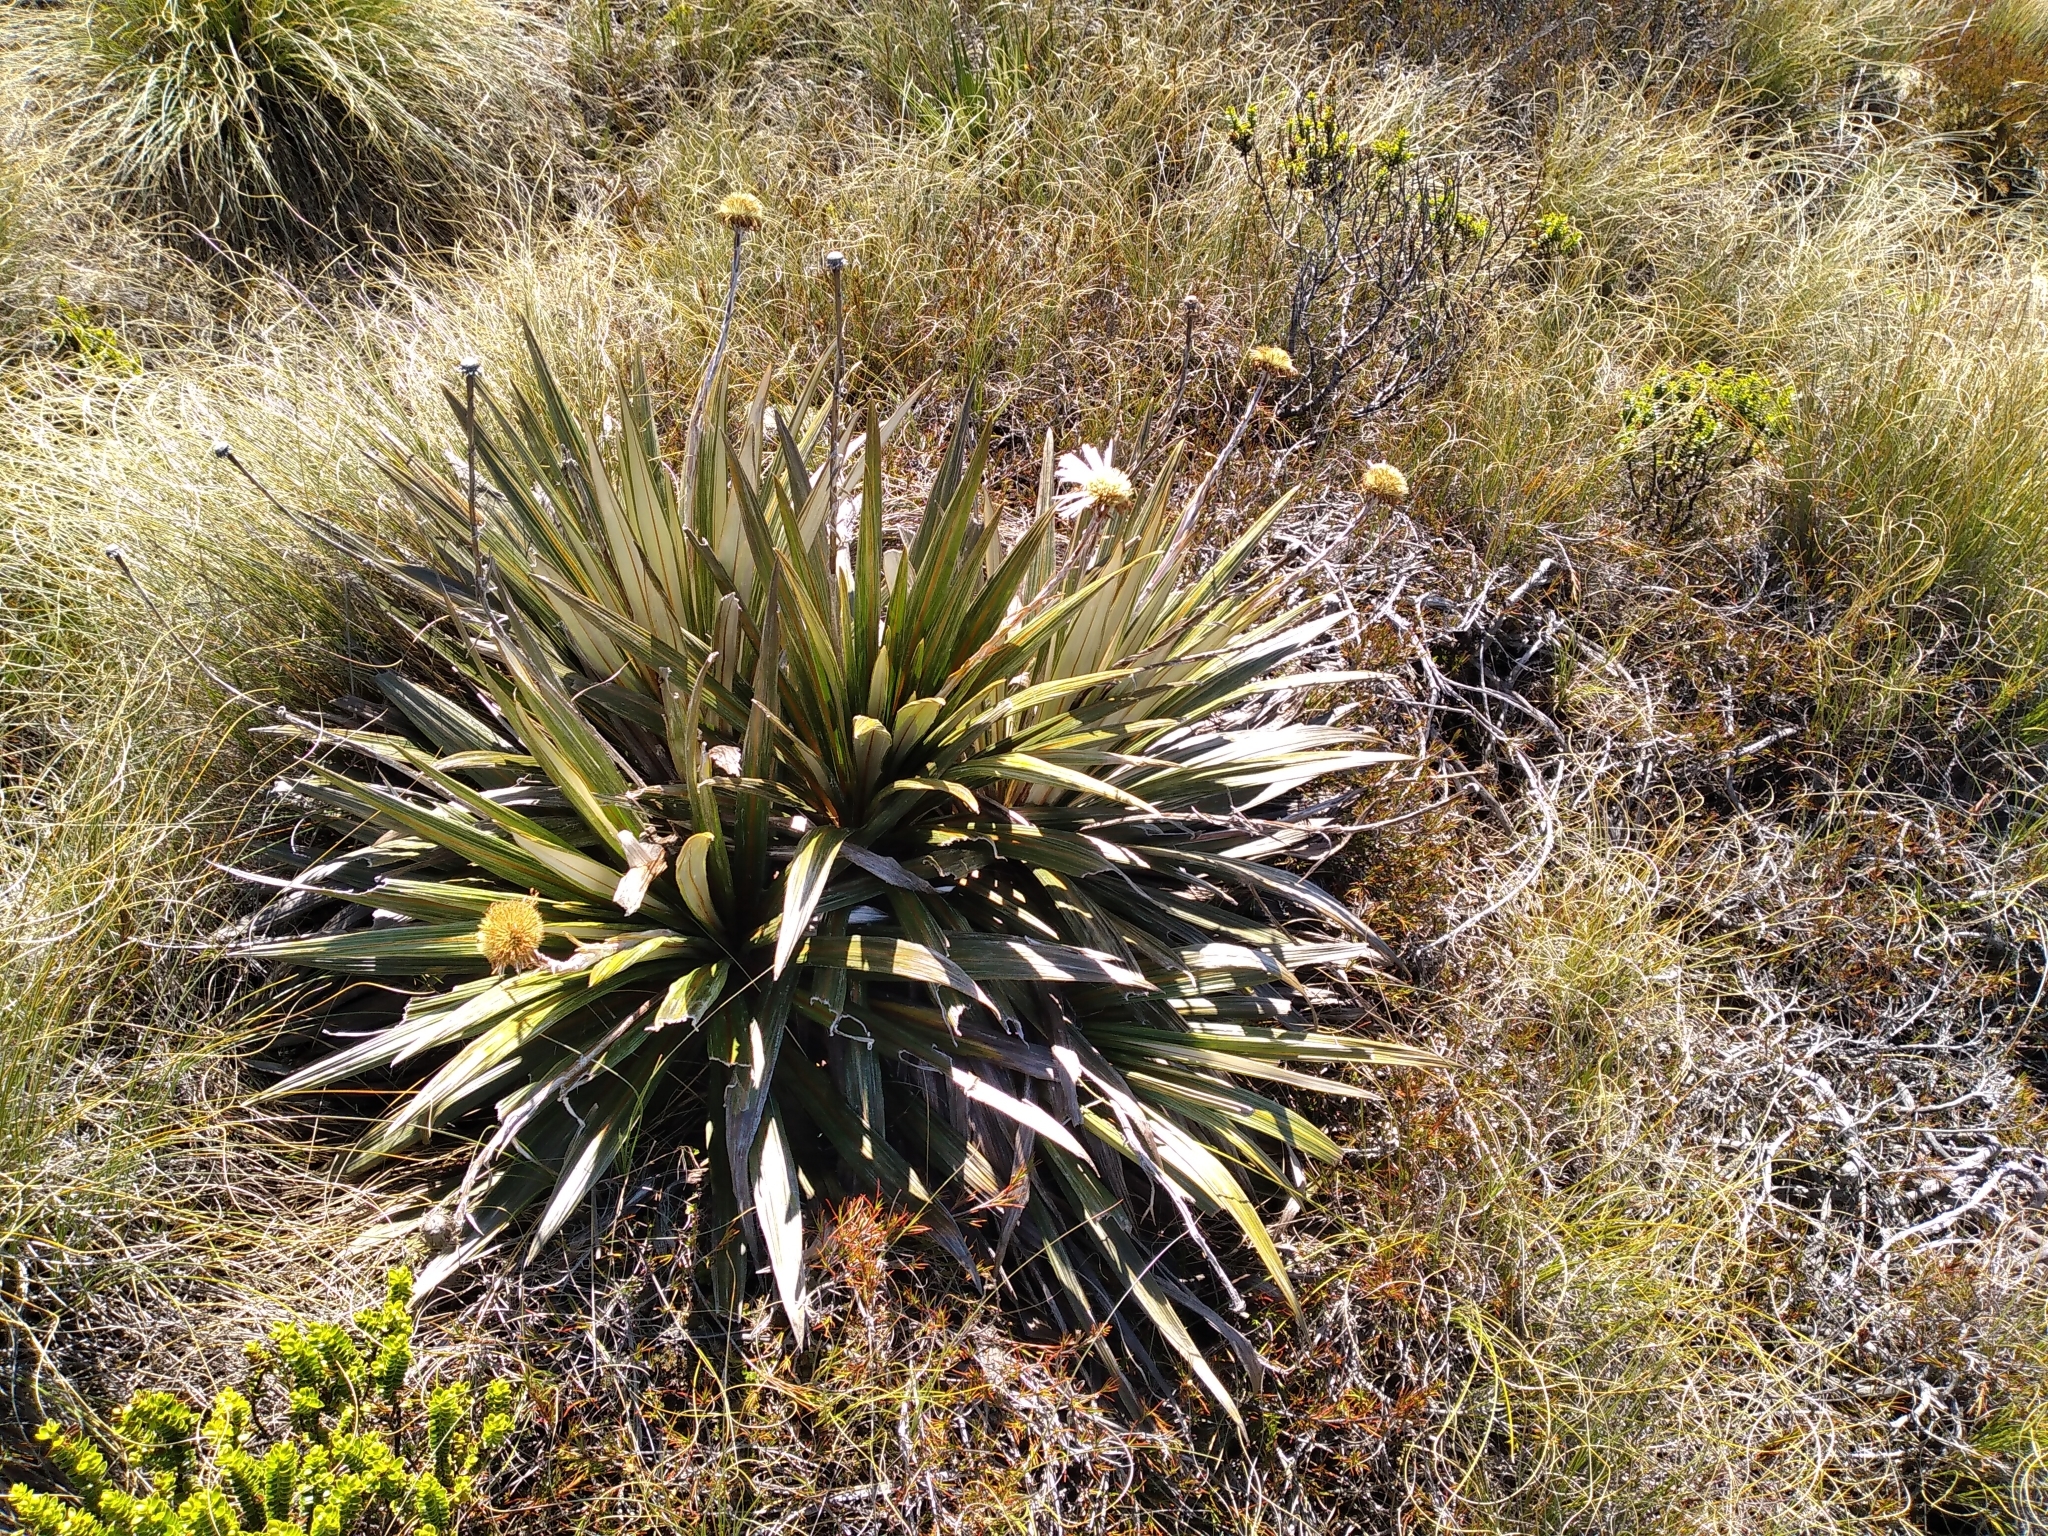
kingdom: Plantae
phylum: Tracheophyta
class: Magnoliopsida
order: Asterales
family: Asteraceae
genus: Celmisia
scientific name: Celmisia coriacea
